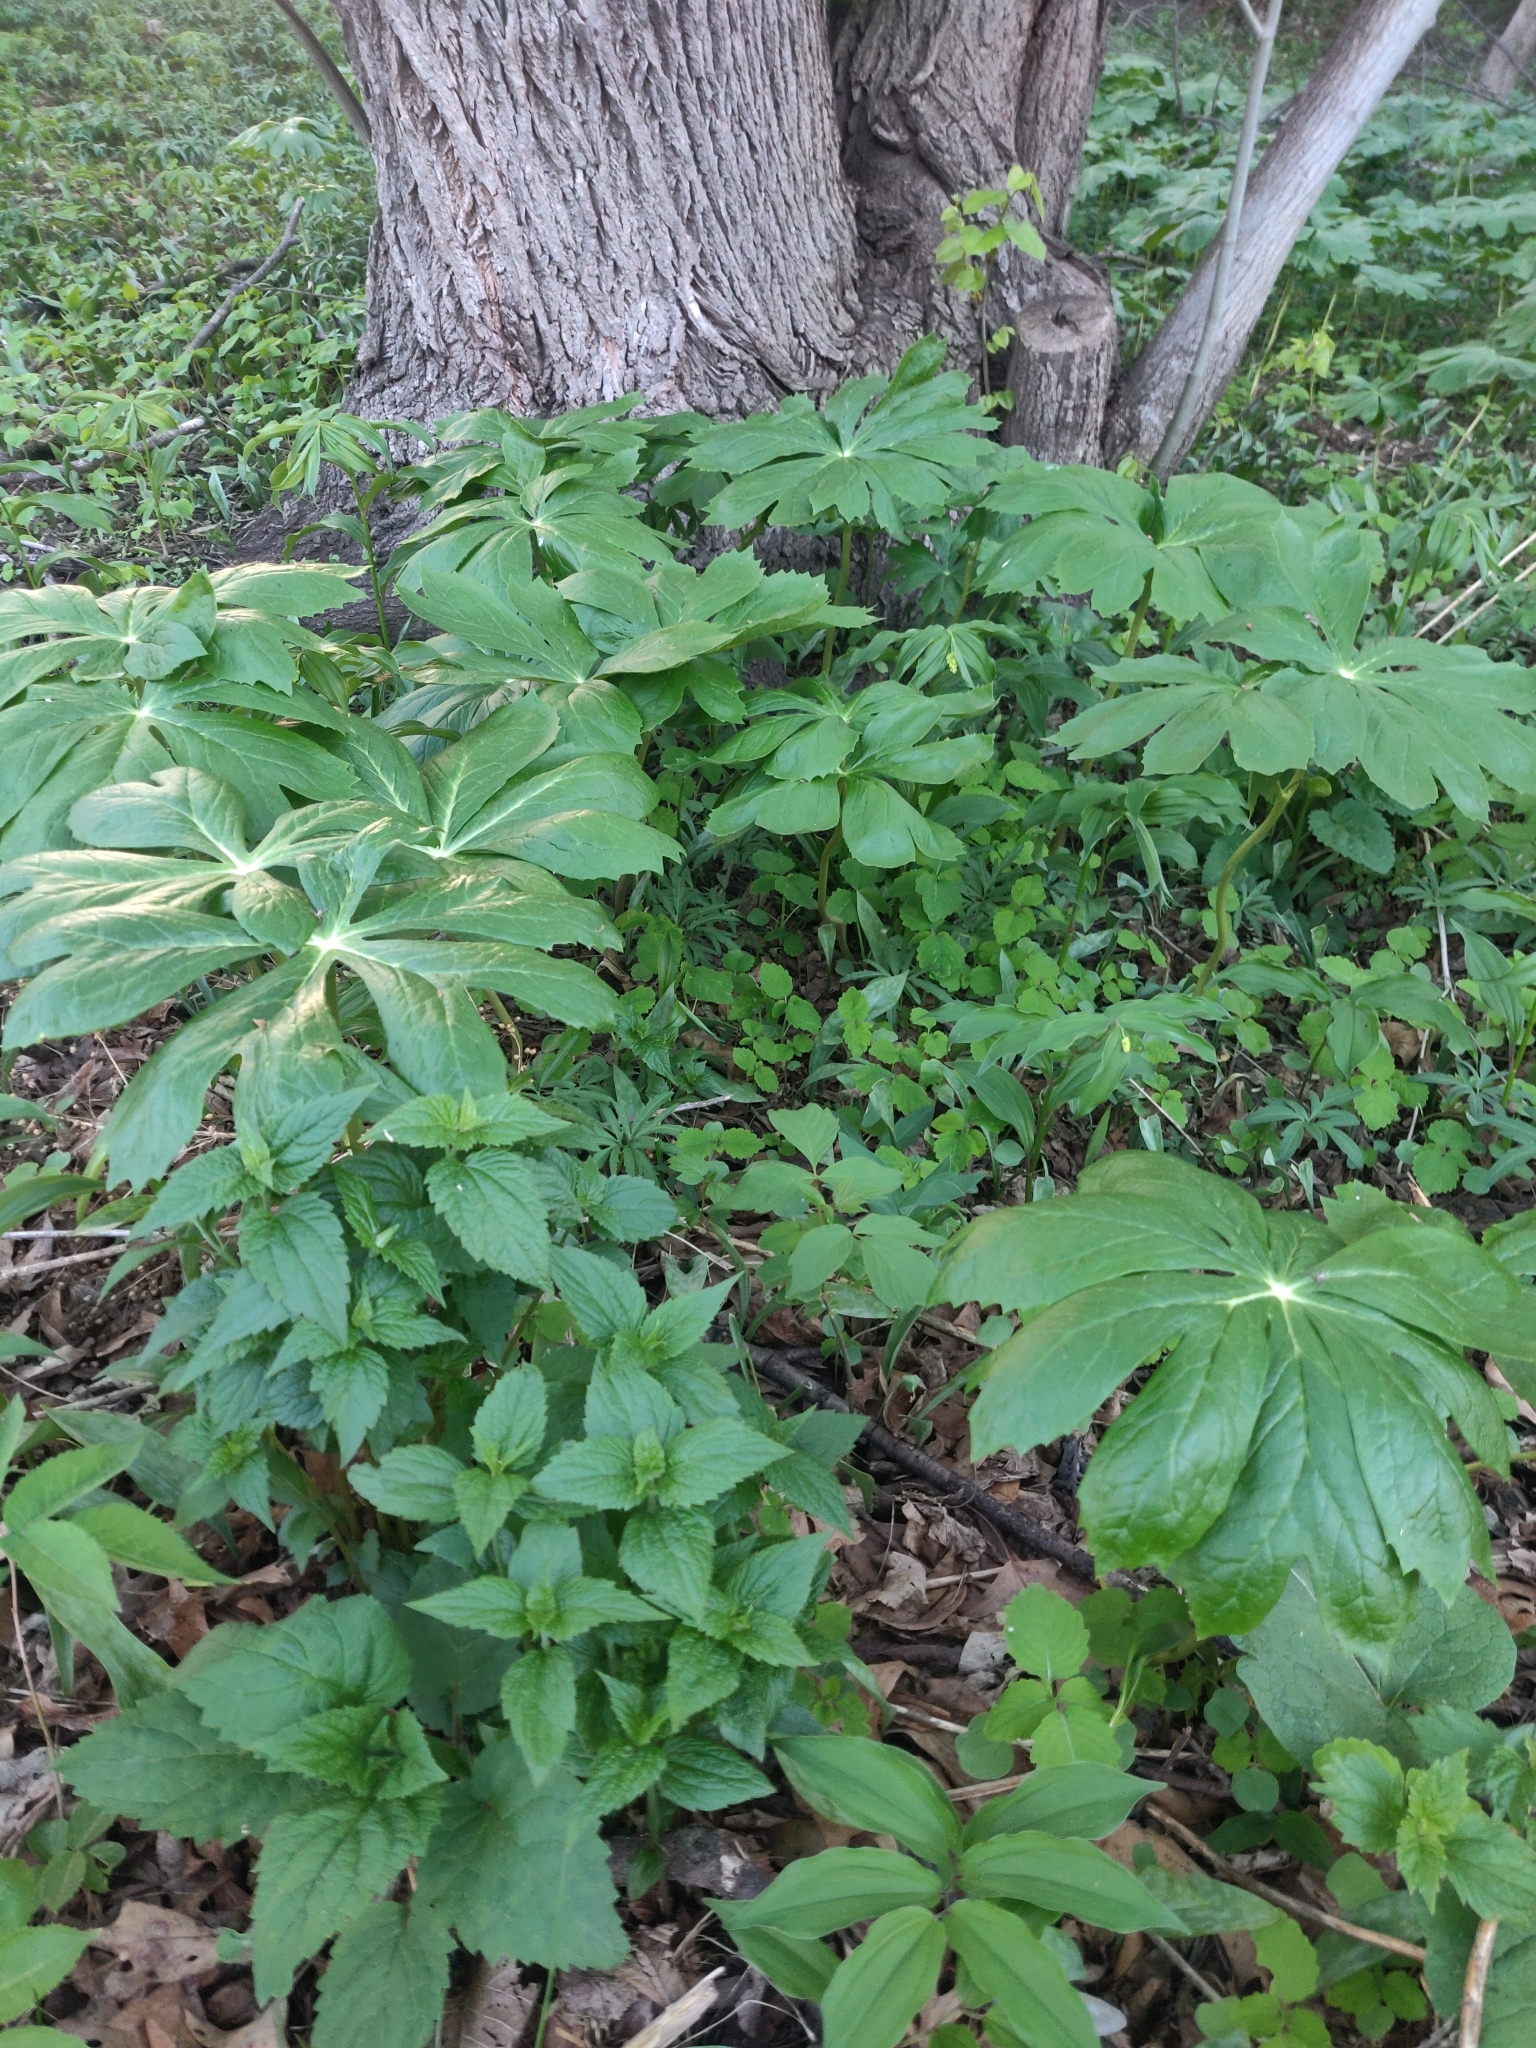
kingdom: Plantae
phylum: Tracheophyta
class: Magnoliopsida
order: Ranunculales
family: Berberidaceae
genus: Podophyllum
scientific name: Podophyllum peltatum
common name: Wild mandrake
